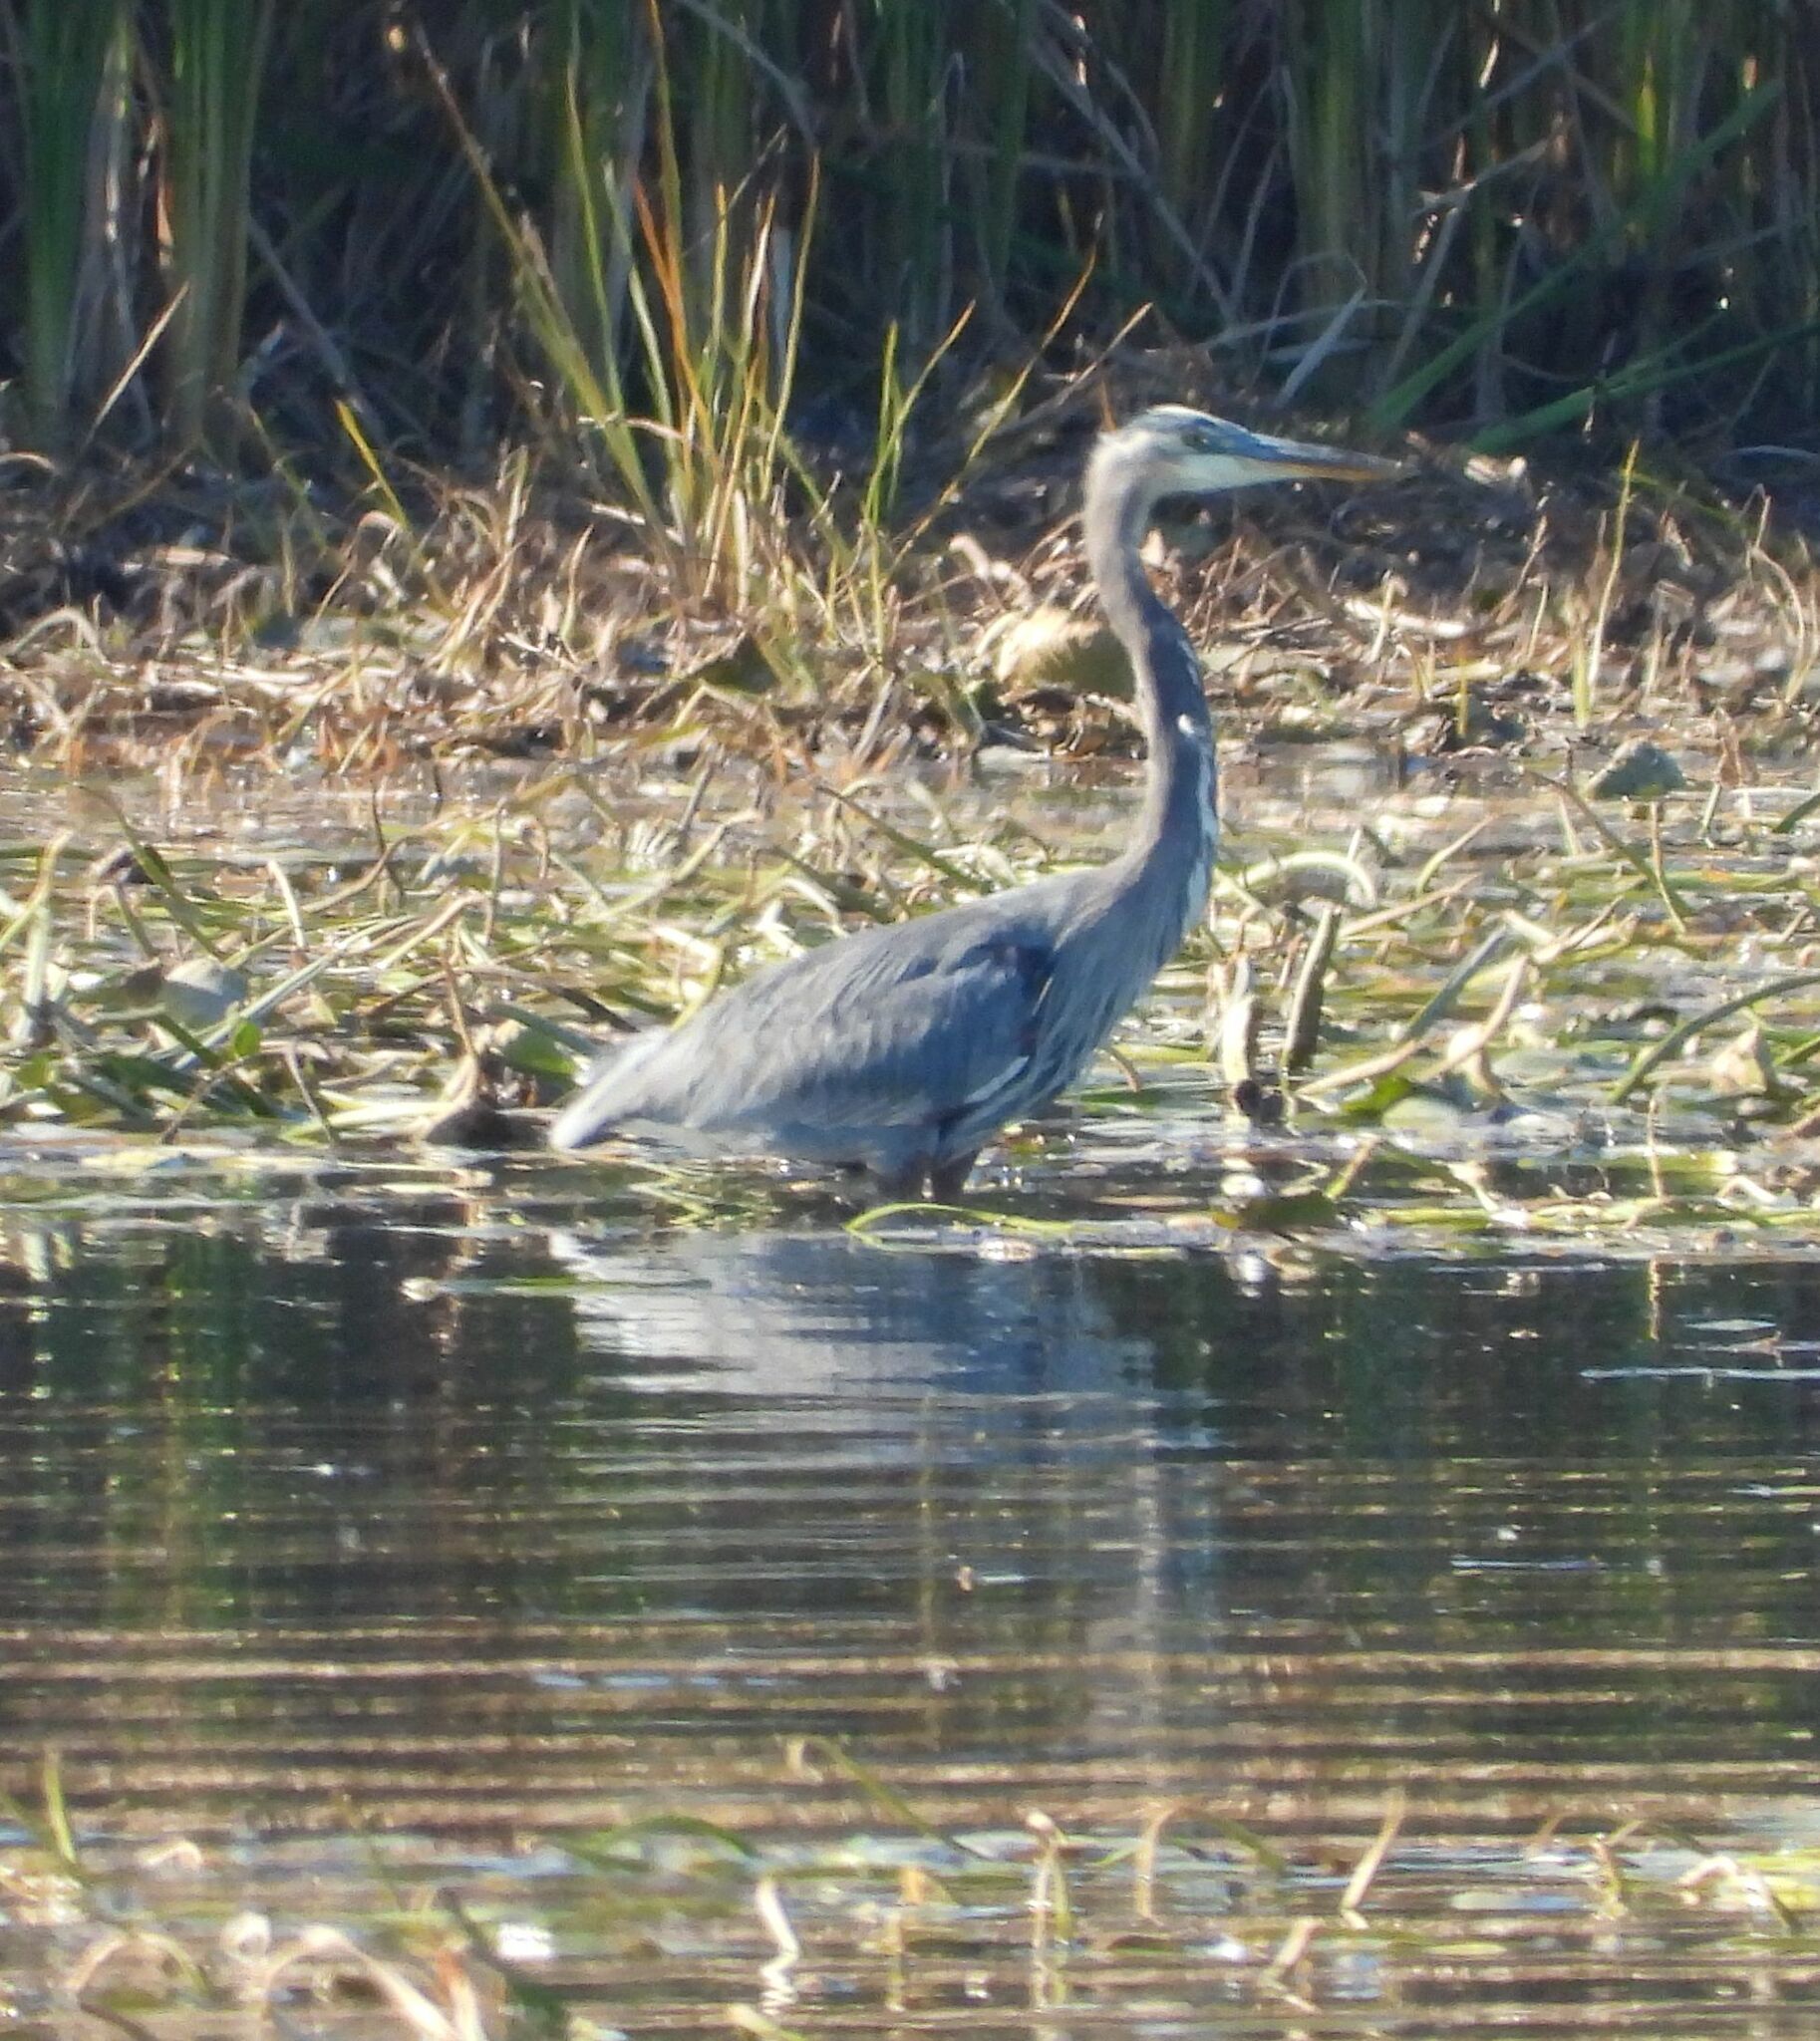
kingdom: Animalia
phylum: Chordata
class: Aves
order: Pelecaniformes
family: Ardeidae
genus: Ardea
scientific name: Ardea herodias
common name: Great blue heron
